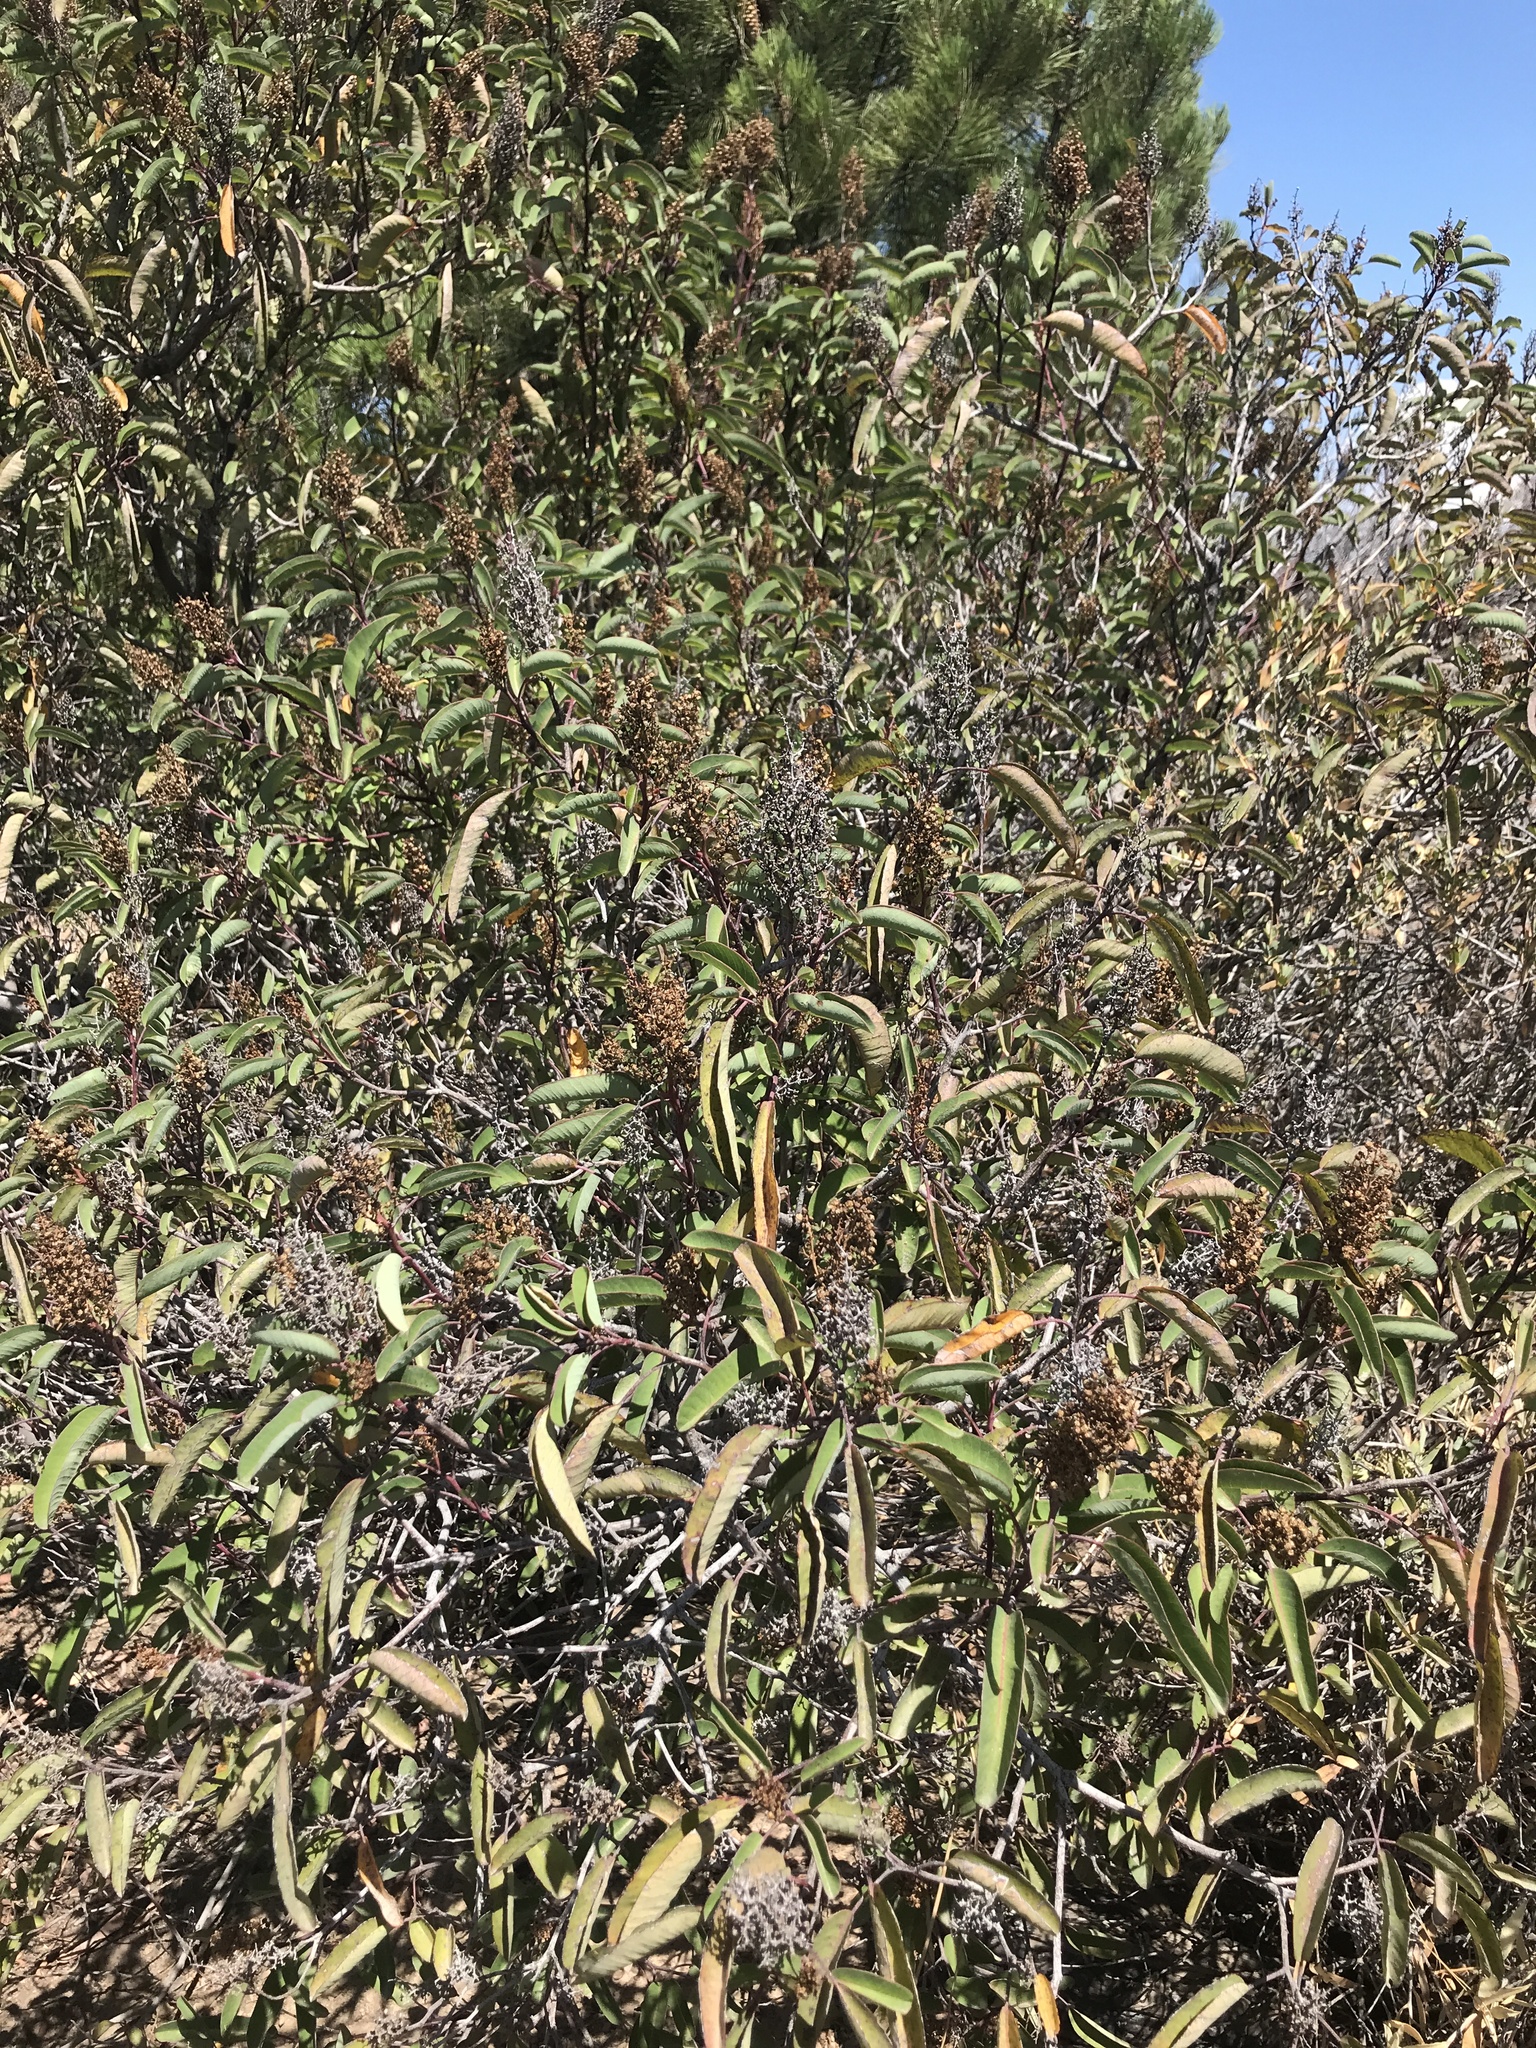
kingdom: Plantae
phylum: Tracheophyta
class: Magnoliopsida
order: Sapindales
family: Anacardiaceae
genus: Malosma
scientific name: Malosma laurina
